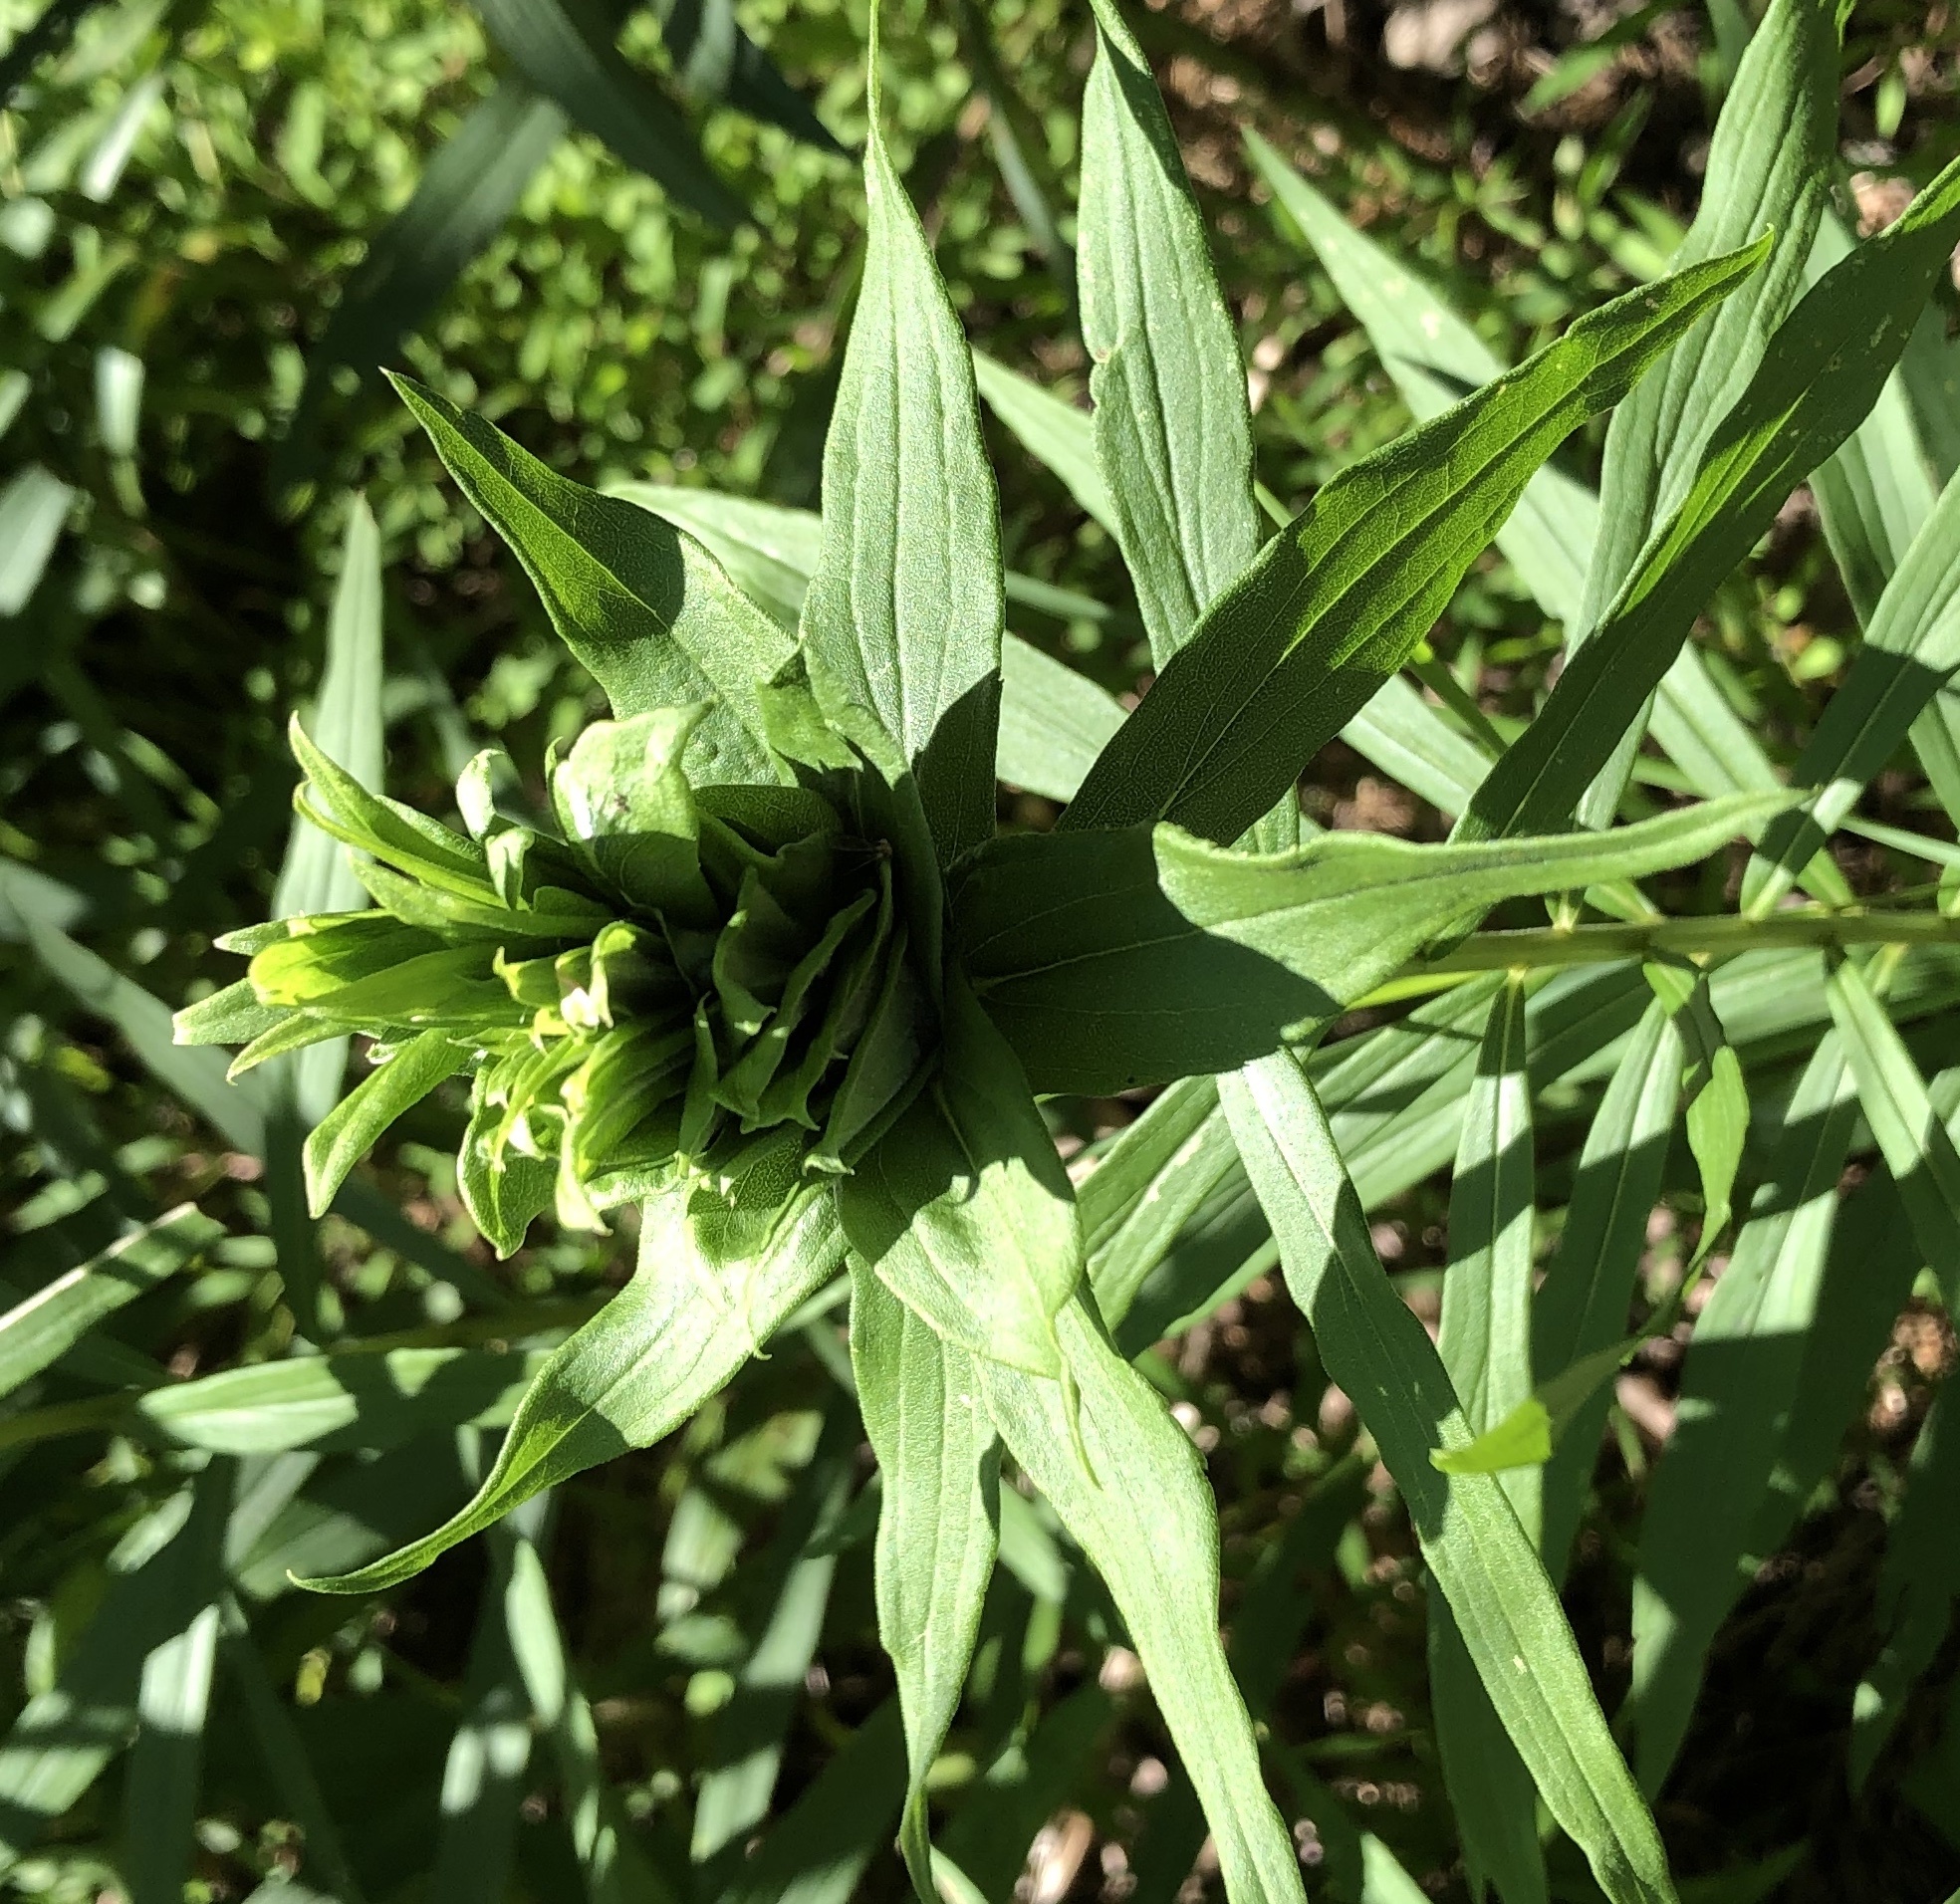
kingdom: Animalia
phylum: Arthropoda
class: Insecta
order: Diptera
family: Cecidomyiidae
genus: Rhopalomyia
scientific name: Rhopalomyia solidaginis
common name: Goldenrod bunch gall midge
